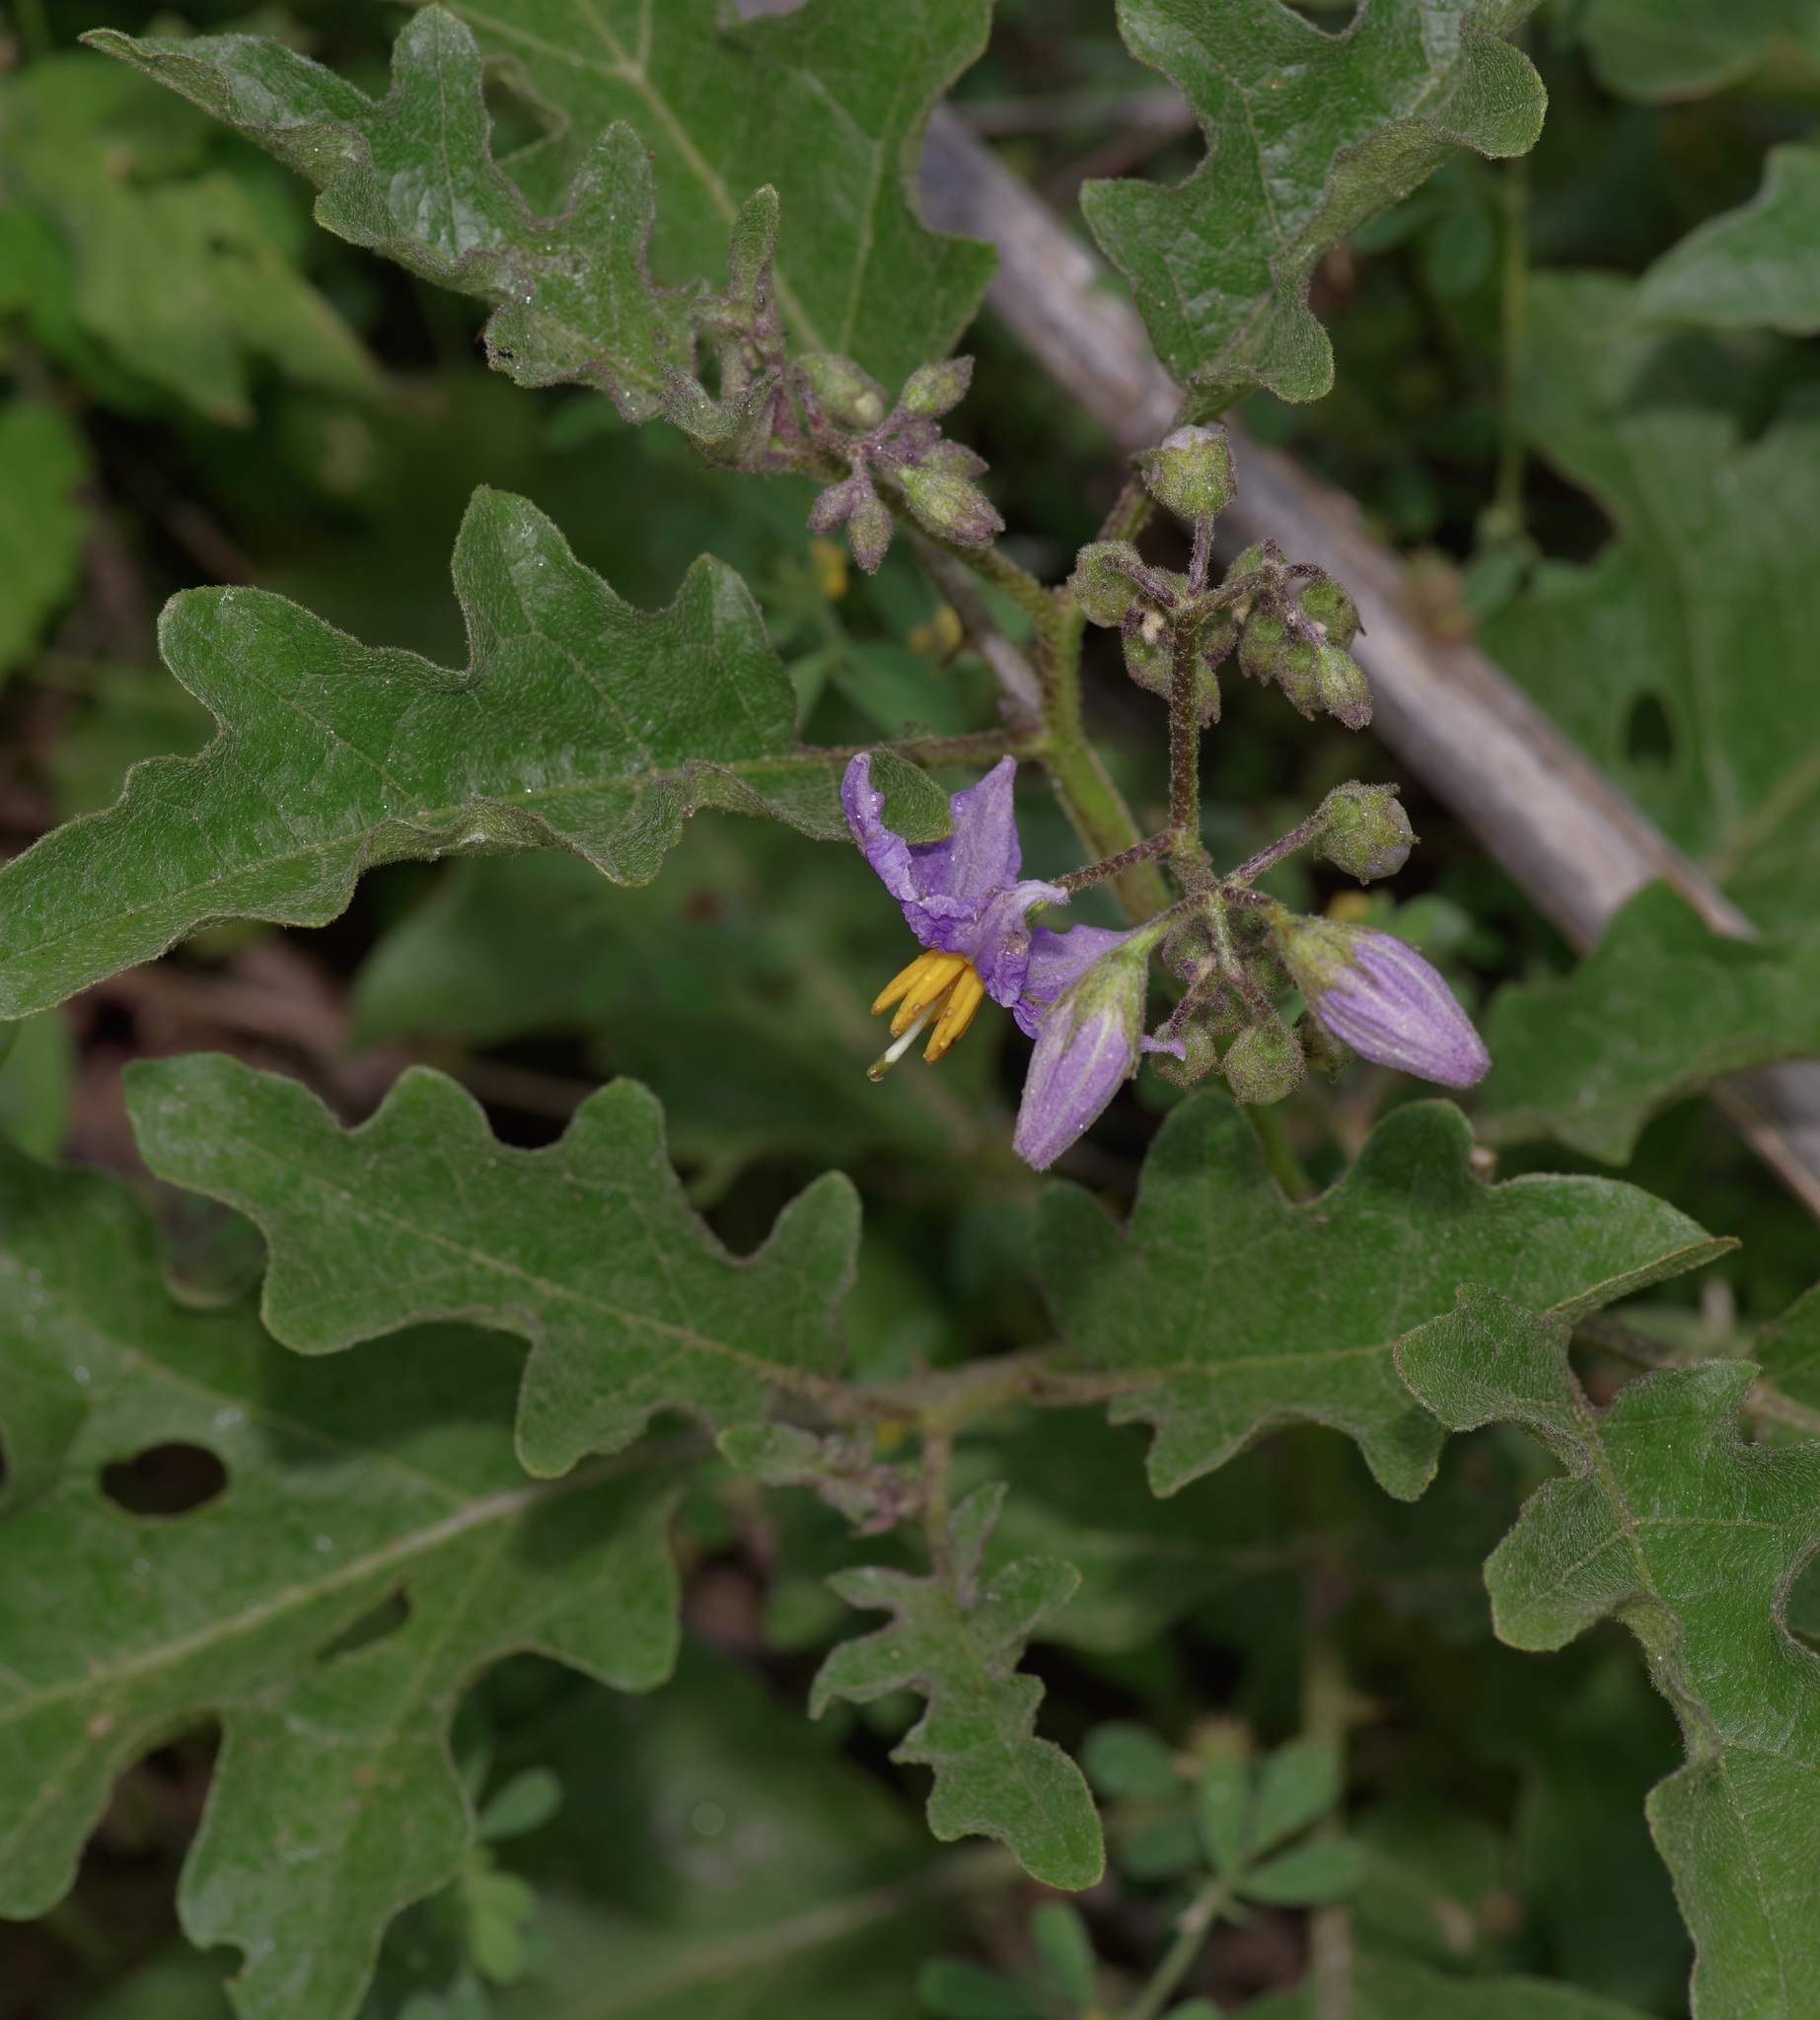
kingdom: Plantae
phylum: Tracheophyta
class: Magnoliopsida
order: Solanales
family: Solanaceae
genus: Solanum
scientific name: Solanum dimidiatum
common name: Carolina horse-nettle
